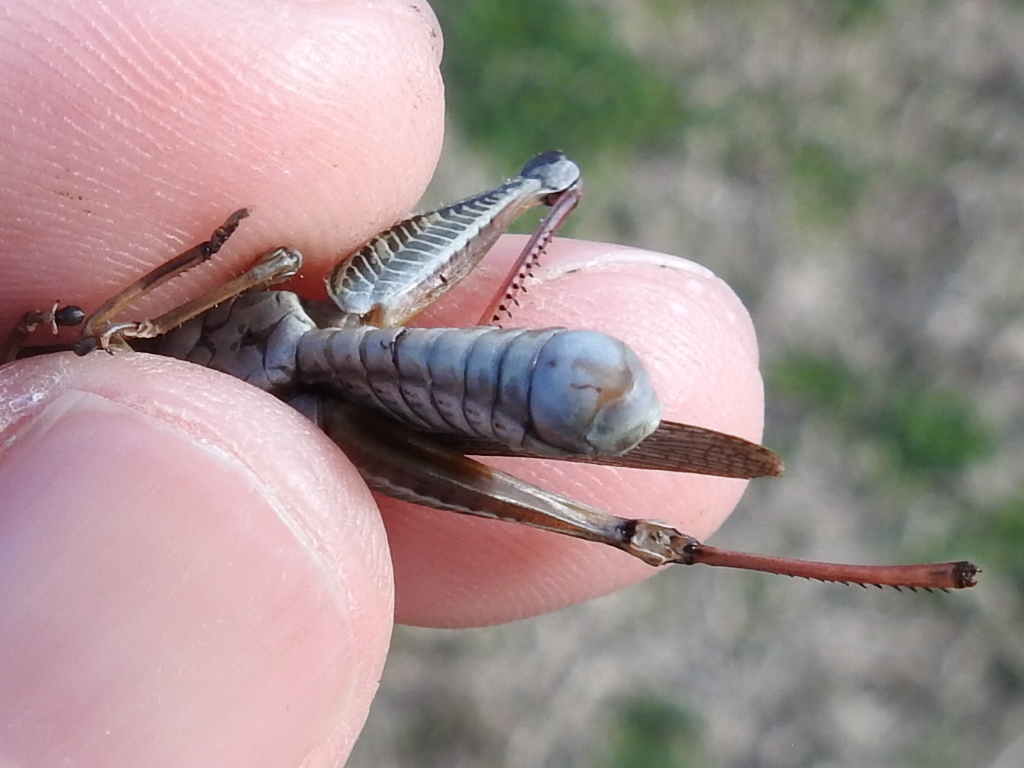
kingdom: Animalia
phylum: Arthropoda
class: Insecta
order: Orthoptera
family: Acrididae
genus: Melanoplus
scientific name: Melanoplus femurrubrum
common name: Red-legged grasshopper
